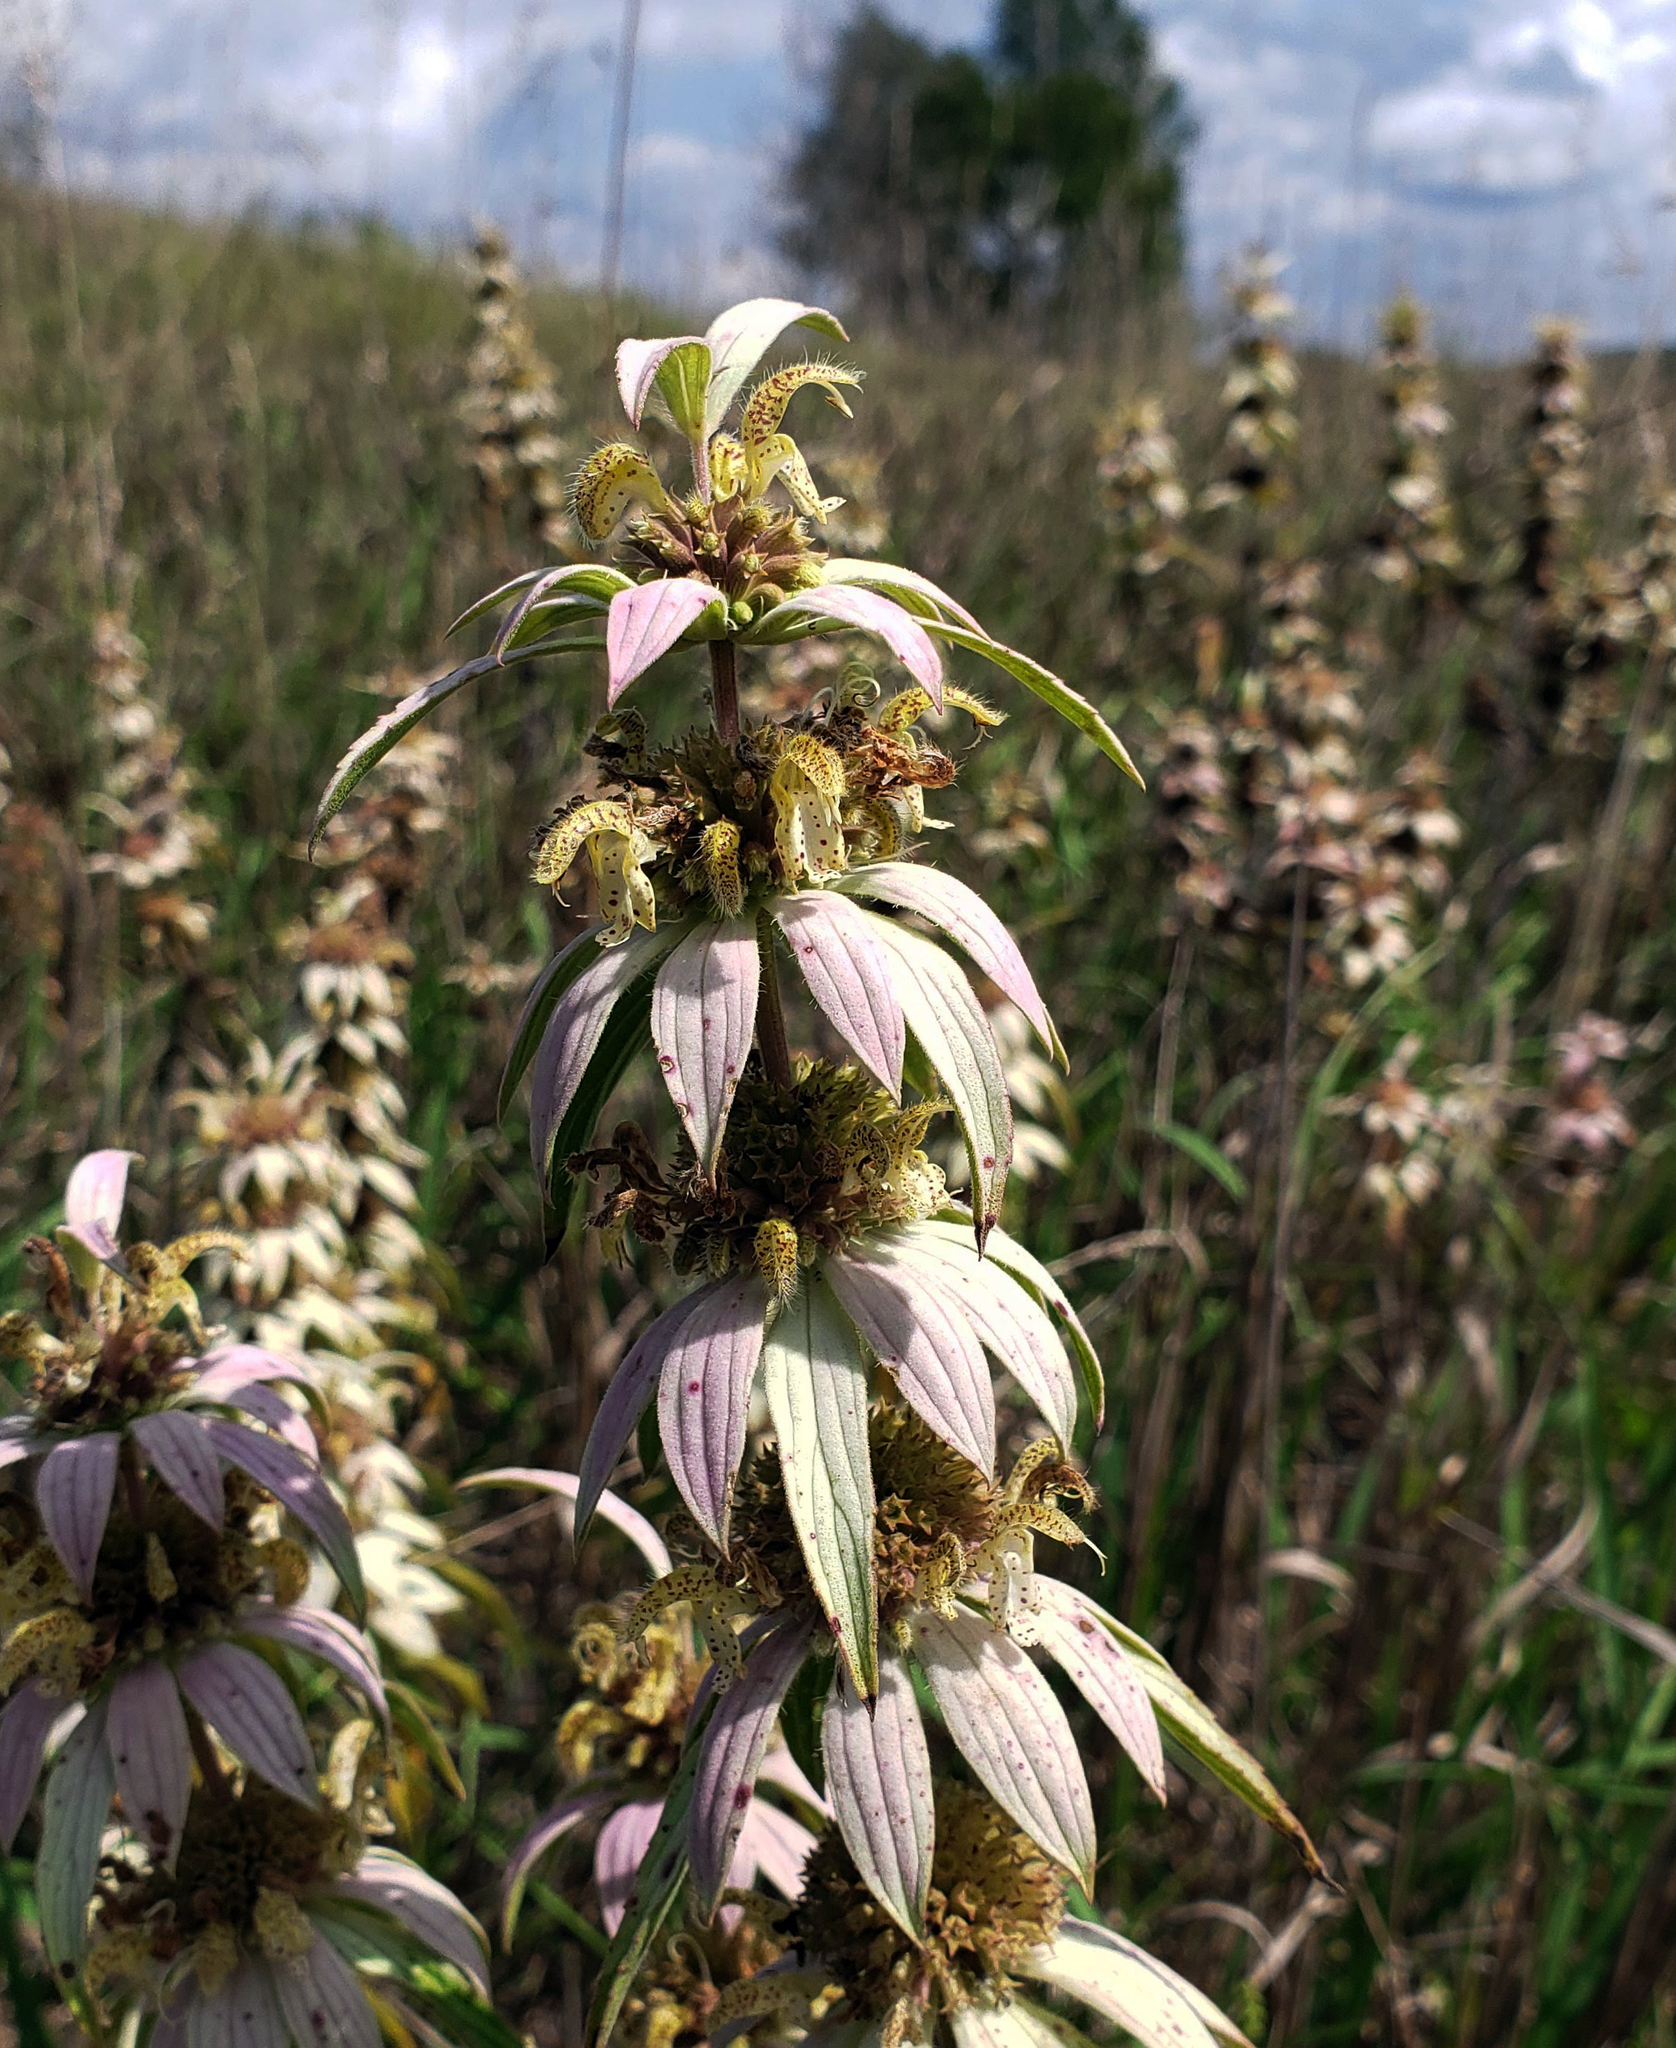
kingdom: Plantae
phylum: Tracheophyta
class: Magnoliopsida
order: Lamiales
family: Lamiaceae
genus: Monarda
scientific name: Monarda punctata
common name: Dotted monarda
